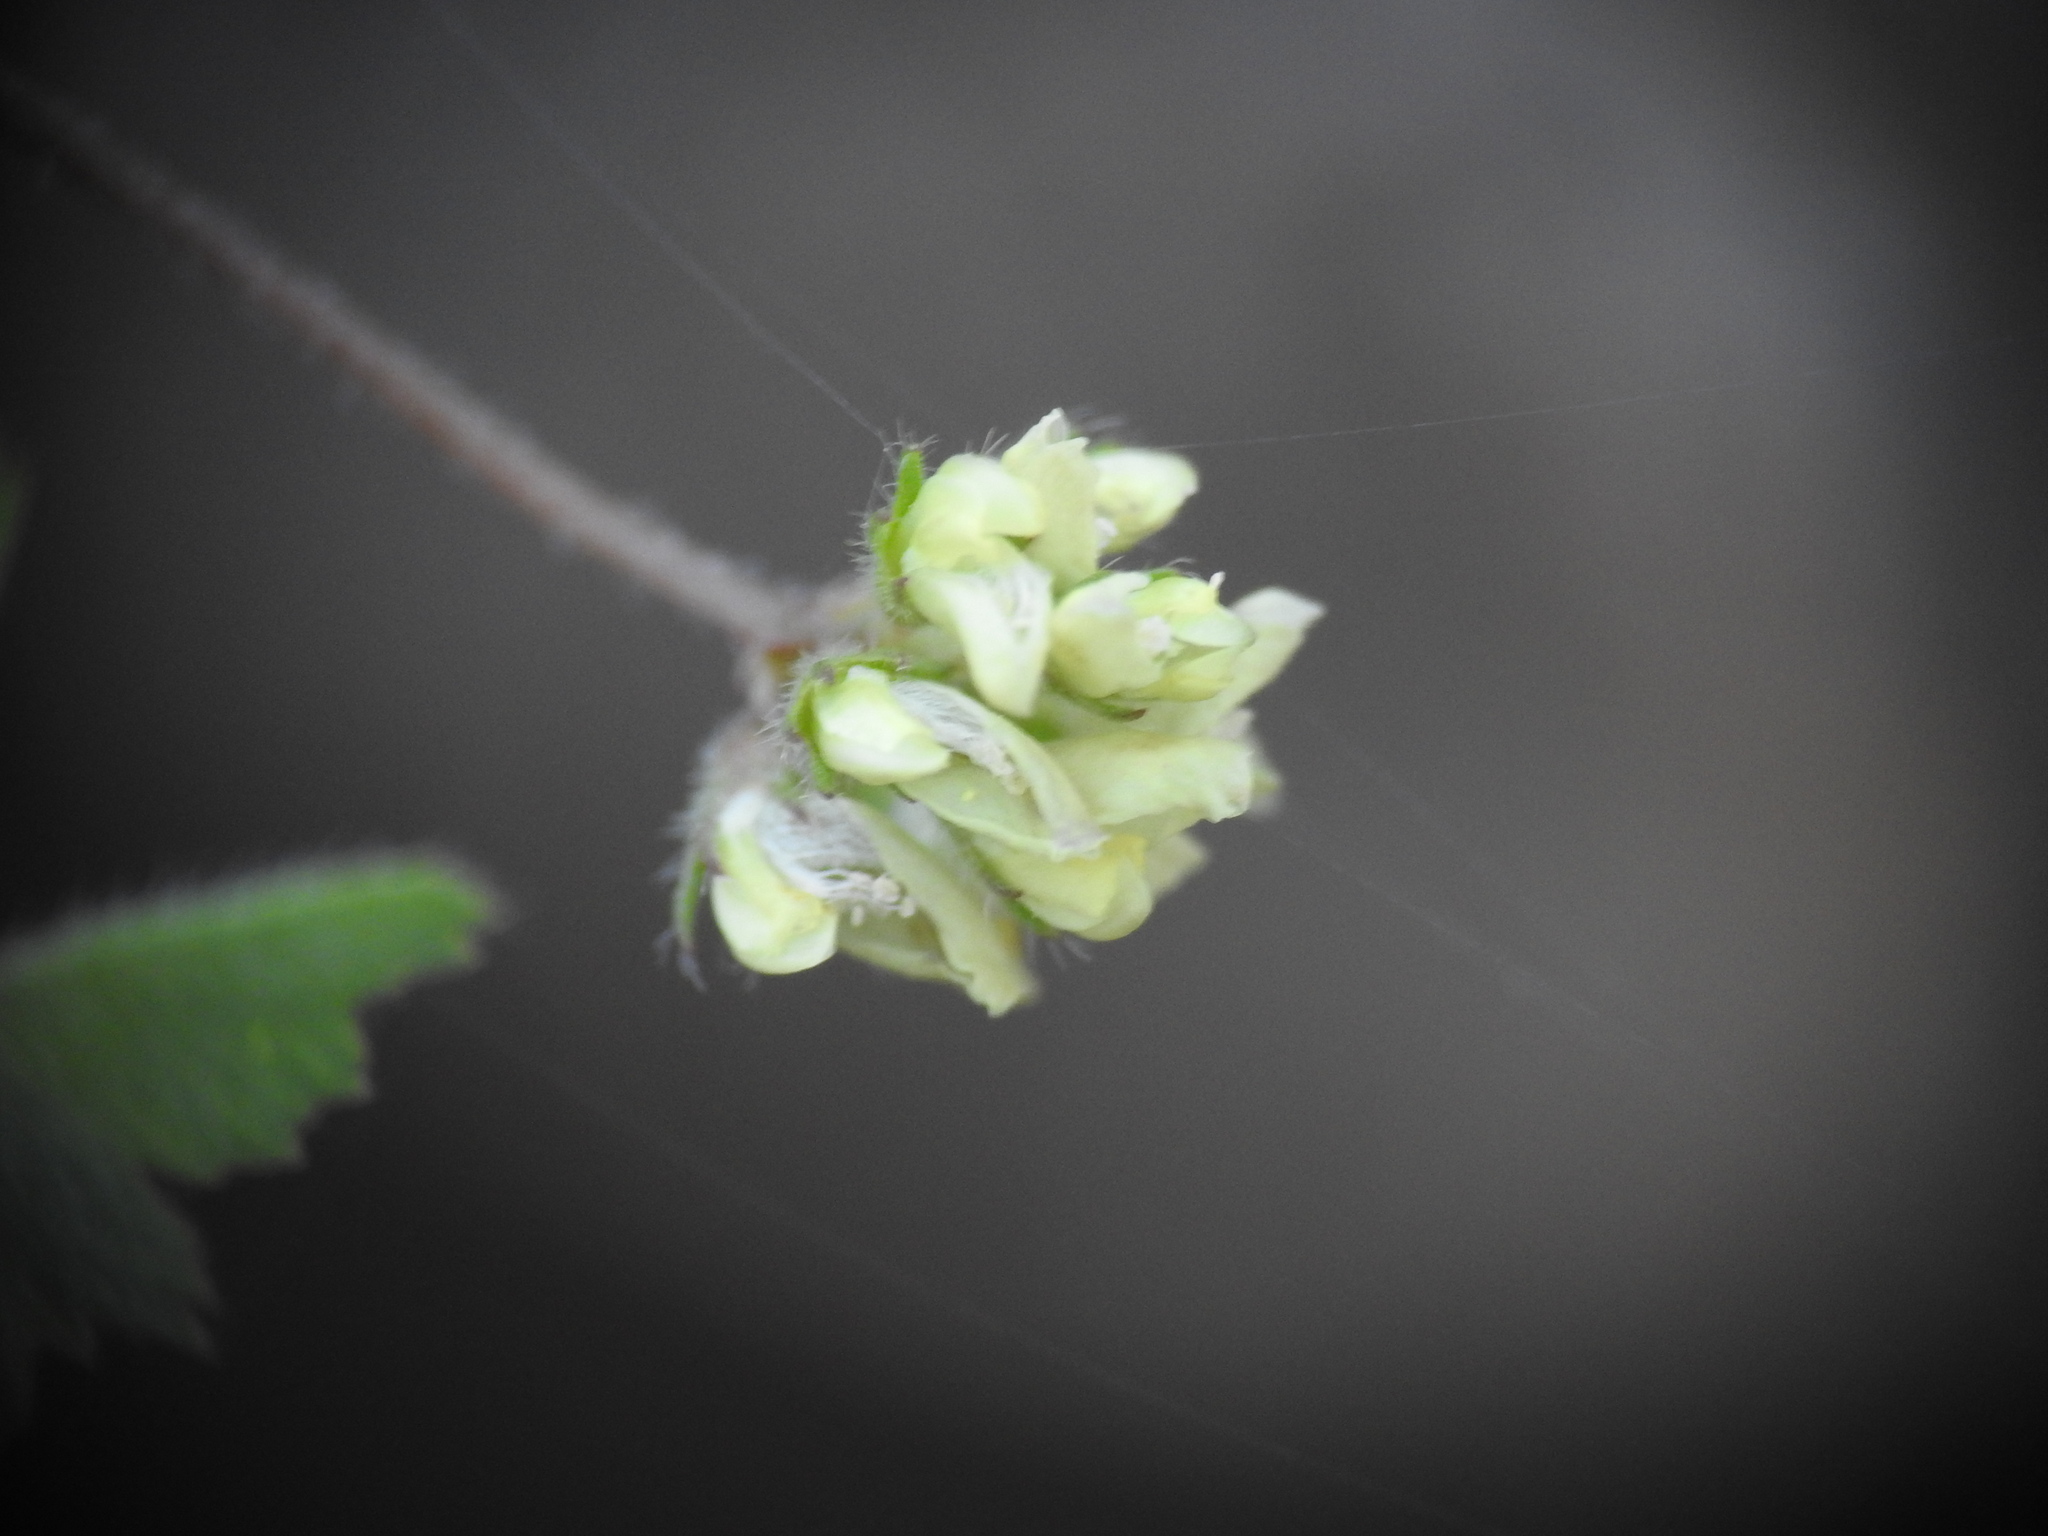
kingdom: Plantae
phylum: Tracheophyta
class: Magnoliopsida
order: Fabales
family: Fabaceae
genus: Medicago
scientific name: Medicago coronata
